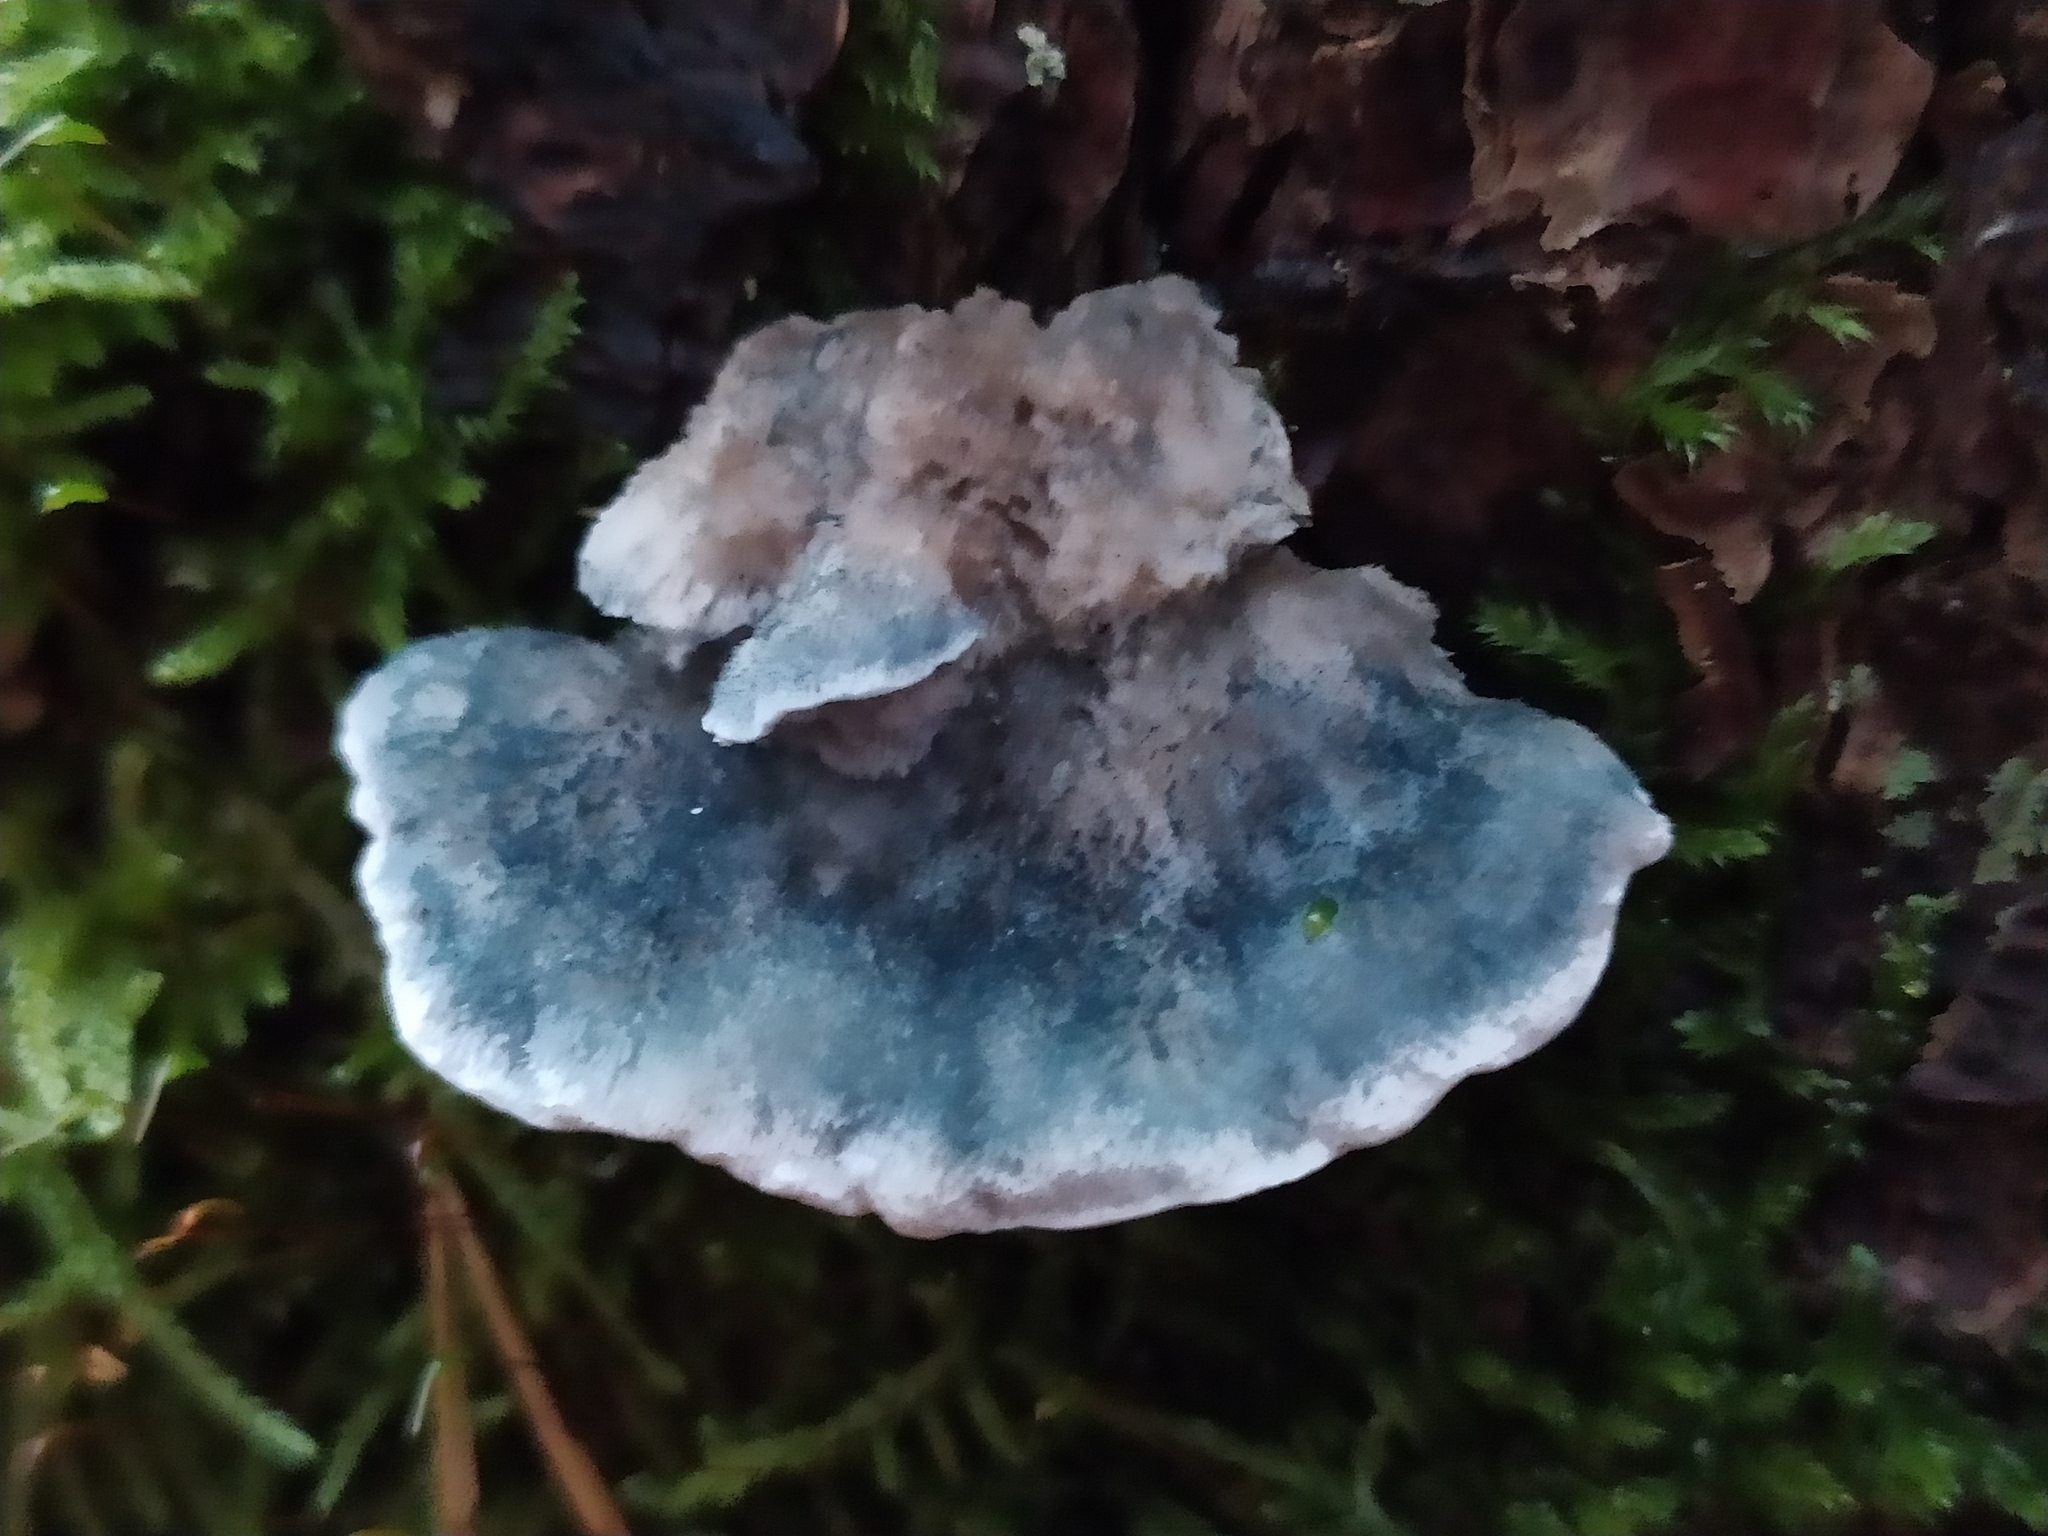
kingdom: Fungi
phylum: Basidiomycota
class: Agaricomycetes
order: Polyporales
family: Polyporaceae
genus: Cyanosporus
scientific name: Cyanosporus caesius
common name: Blue cheese polypore
